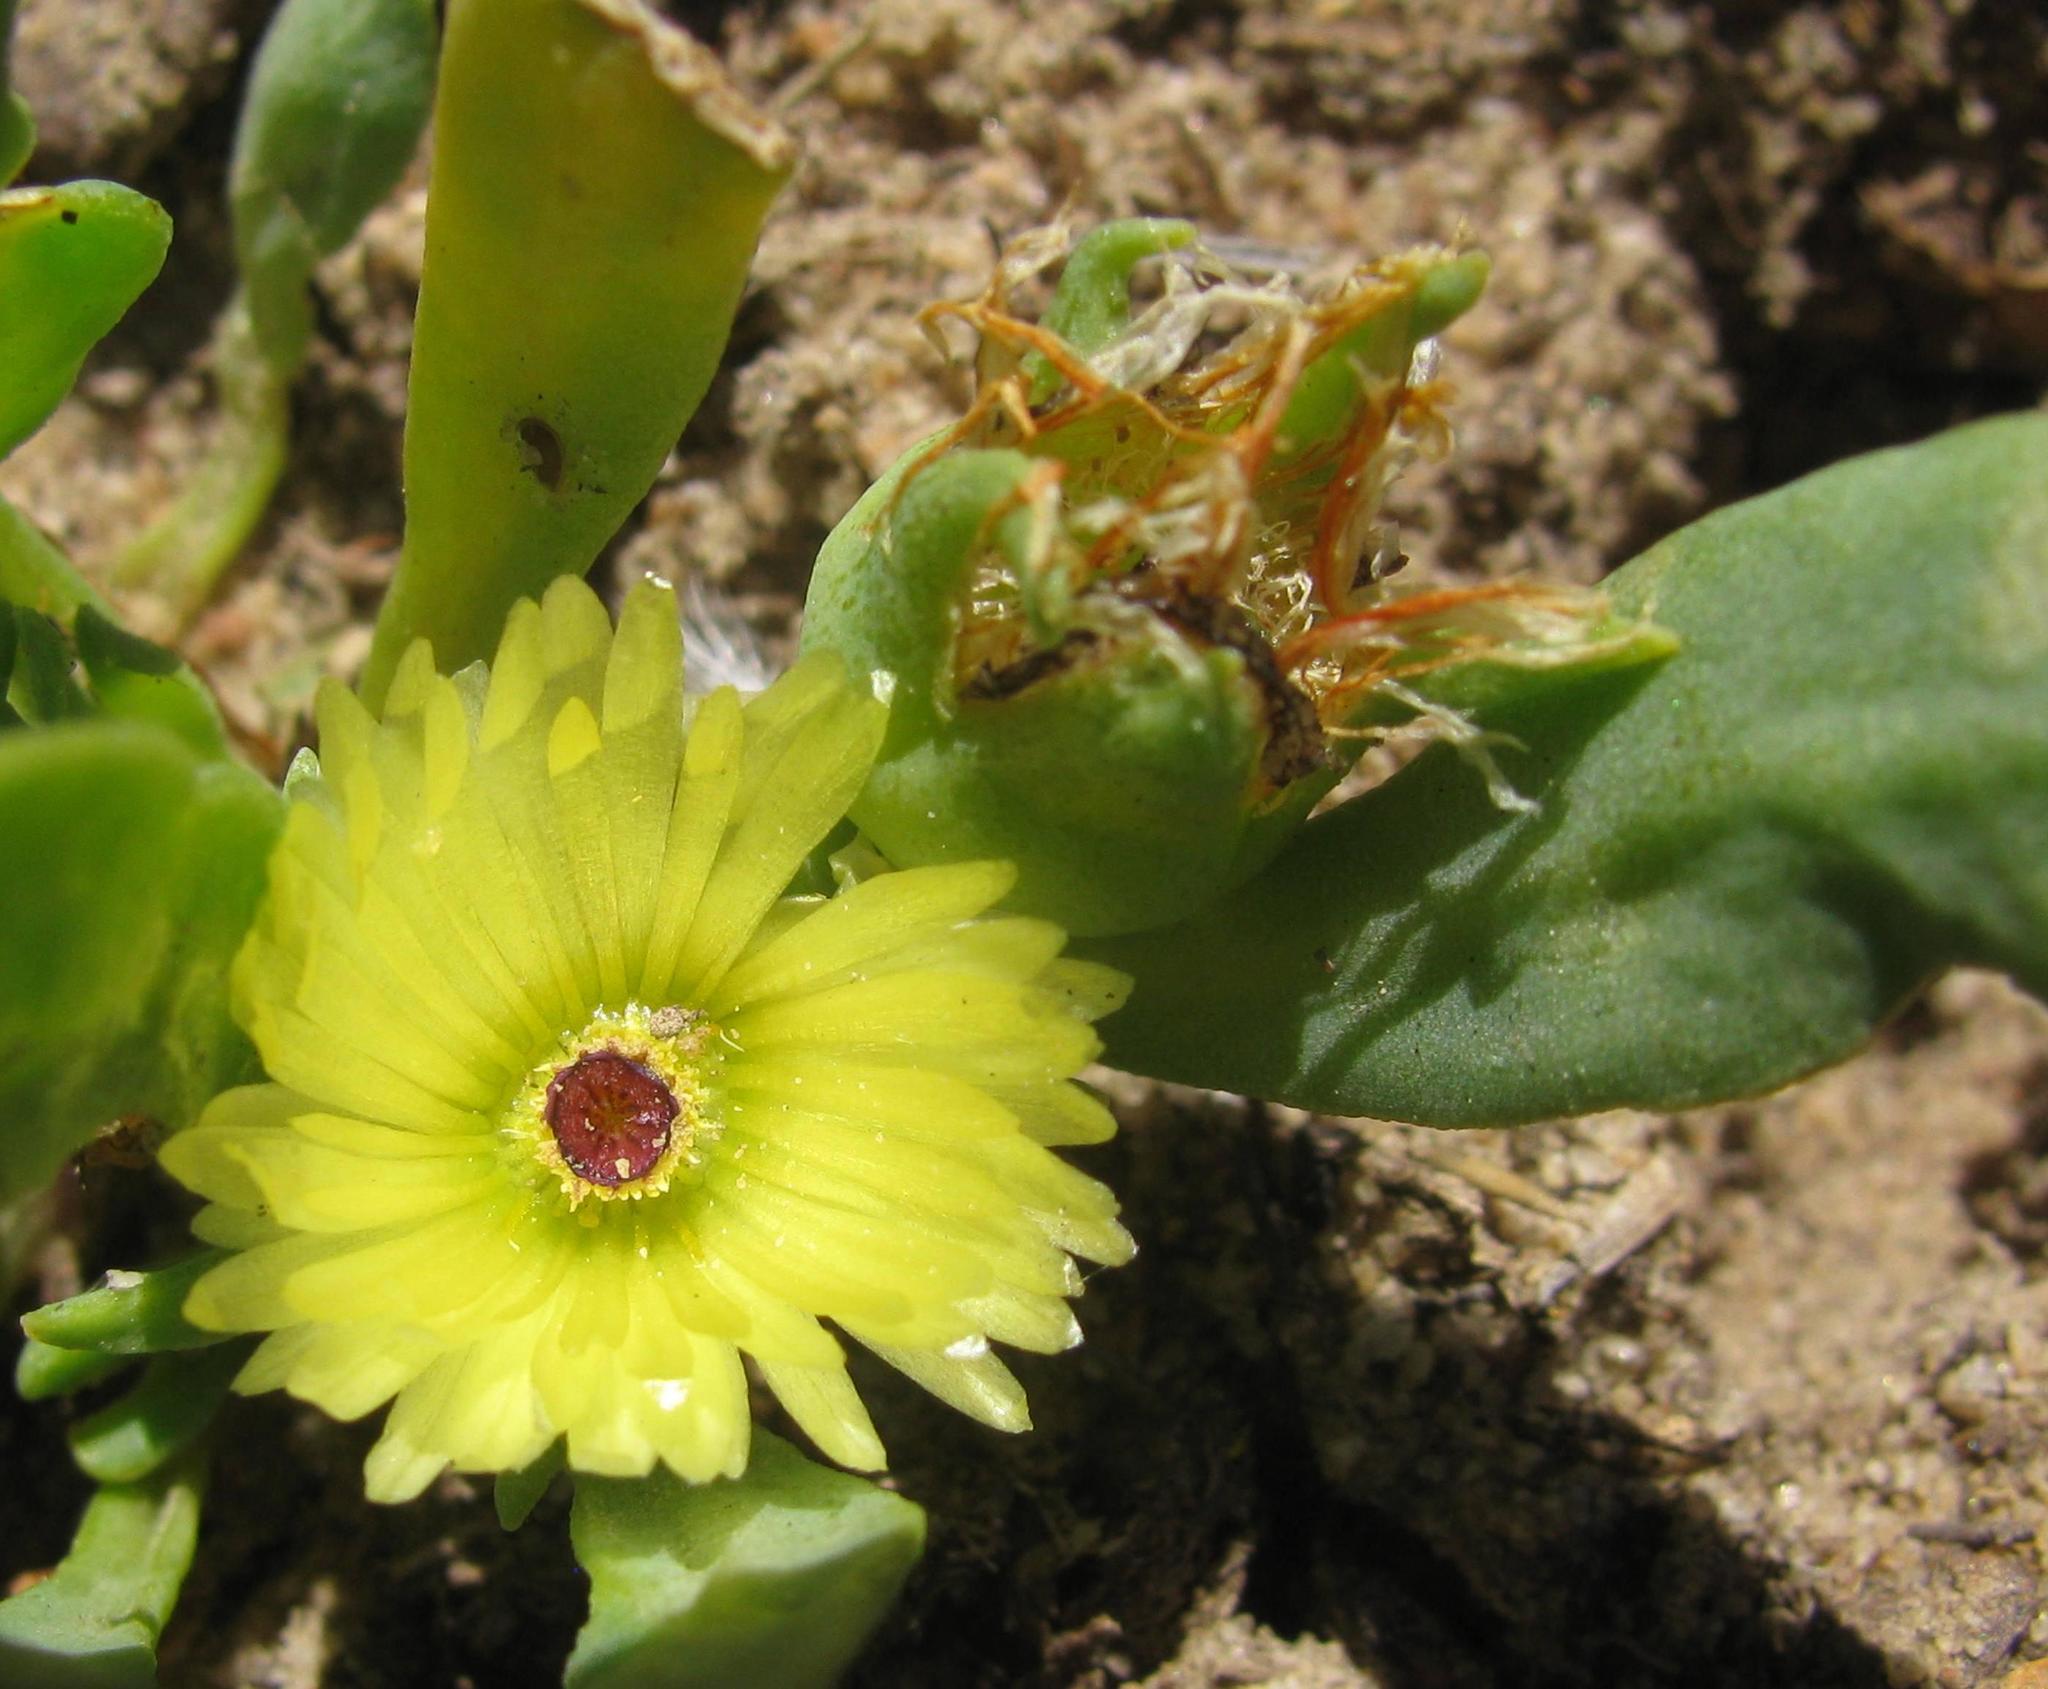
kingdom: Plantae
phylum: Tracheophyta
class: Magnoliopsida
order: Caryophyllales
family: Aizoaceae
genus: Hymenogyne
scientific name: Hymenogyne glabra
